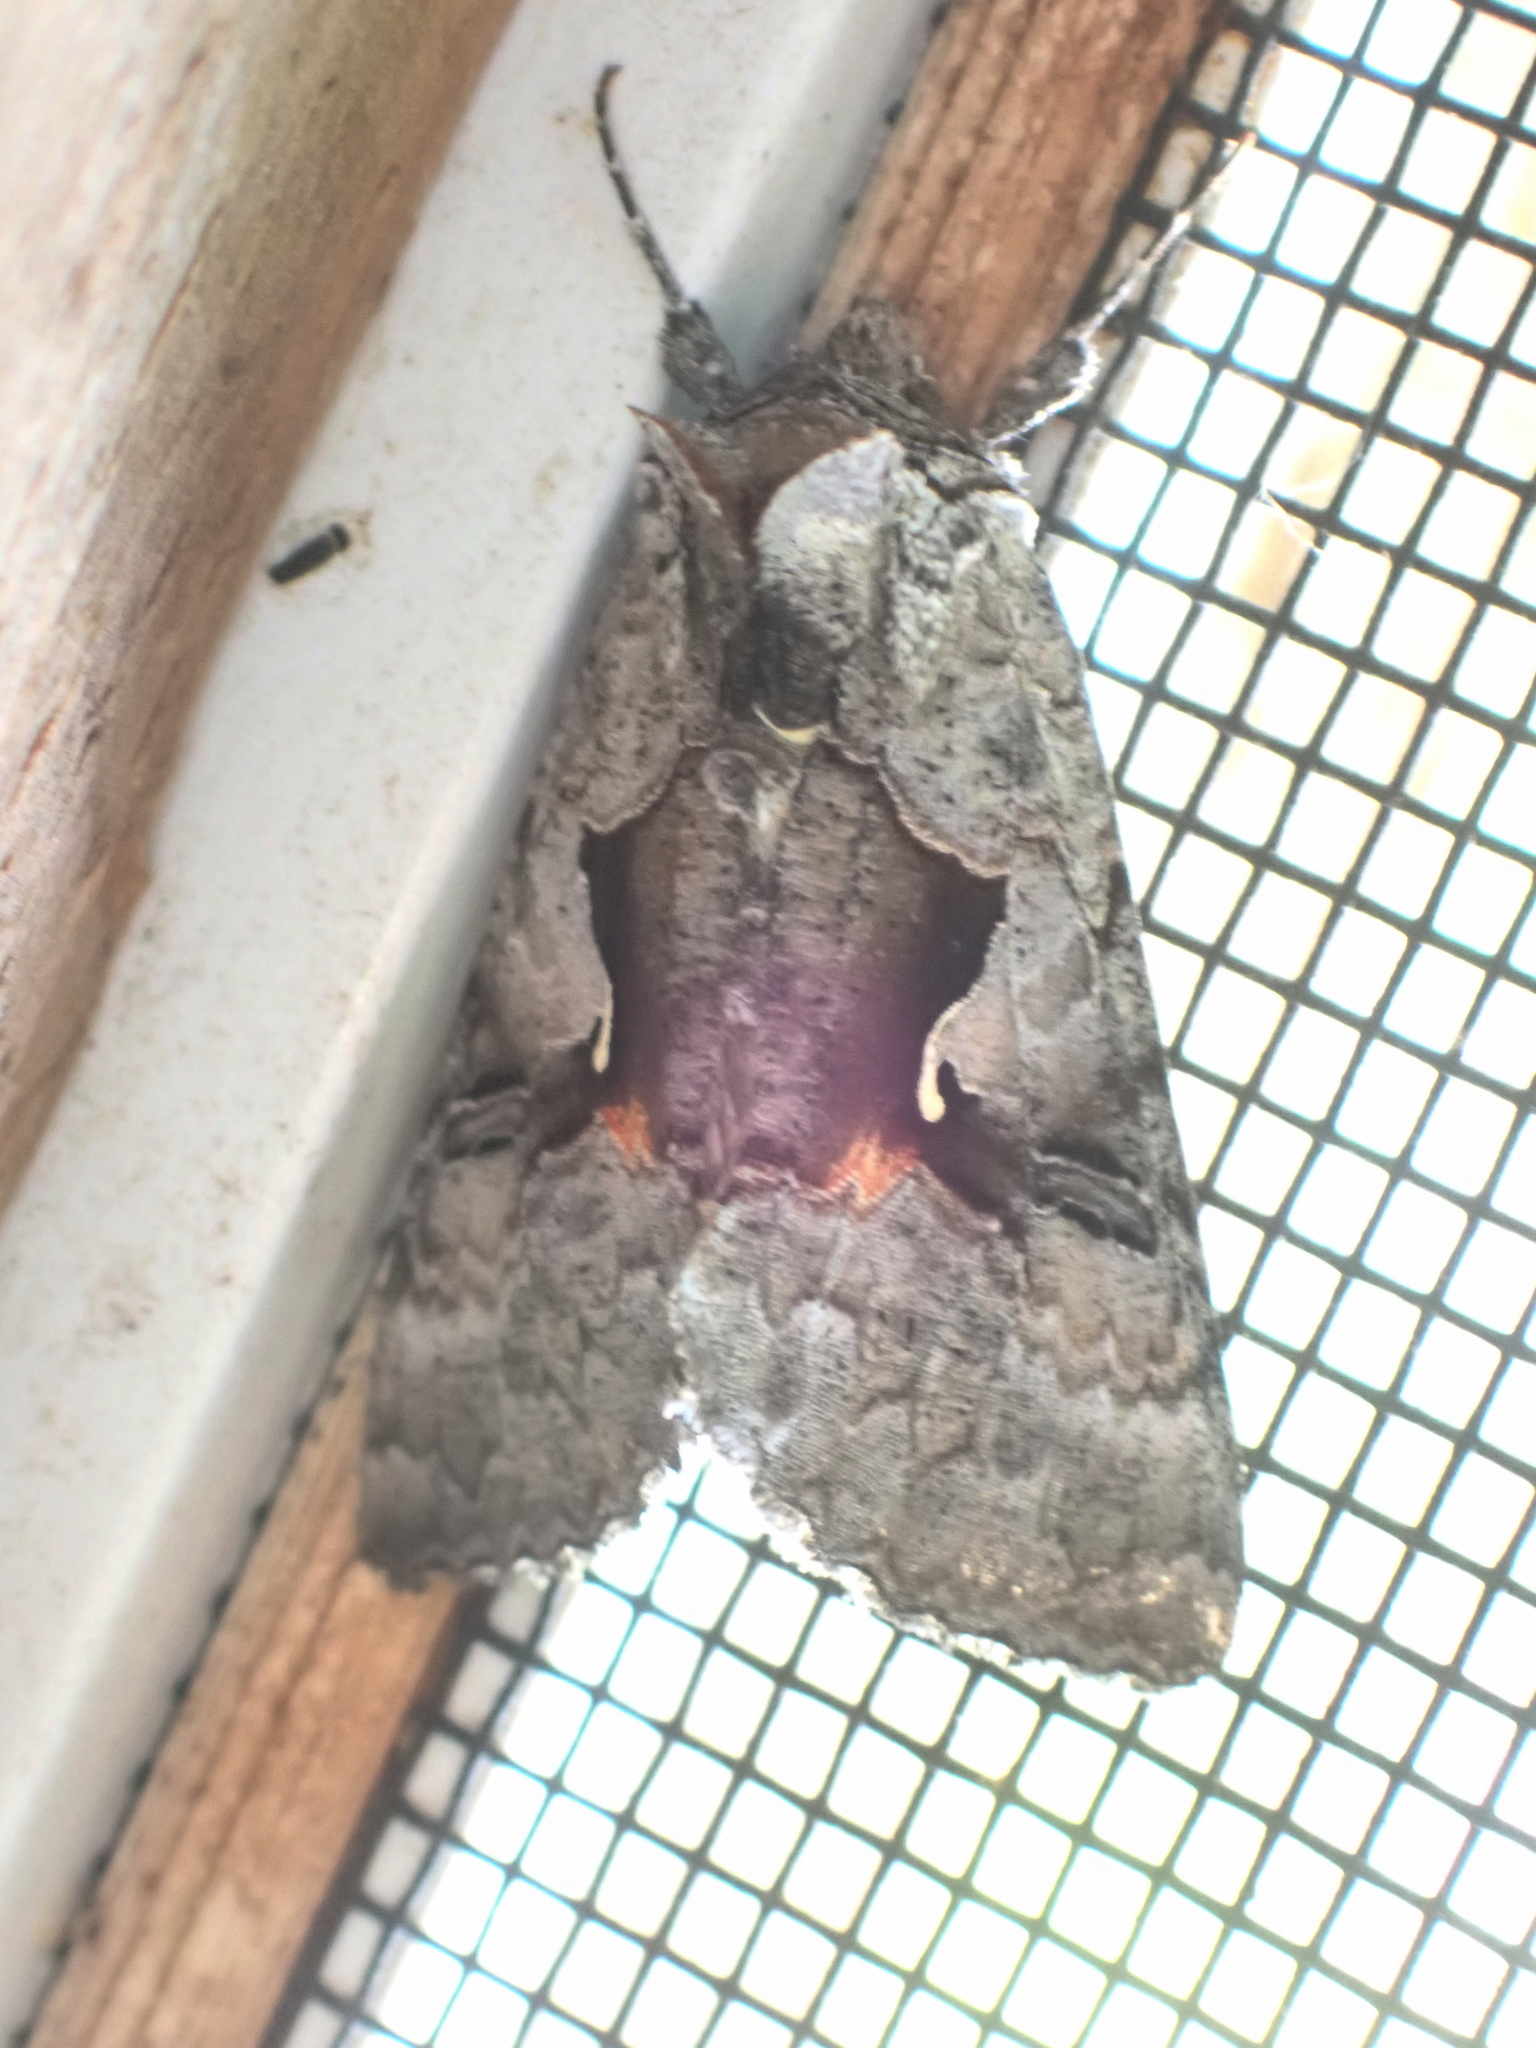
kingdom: Animalia
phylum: Arthropoda
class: Insecta
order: Lepidoptera
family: Noctuidae
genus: Syngrapha
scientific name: Syngrapha epigaea
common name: Epigaea looper moth
